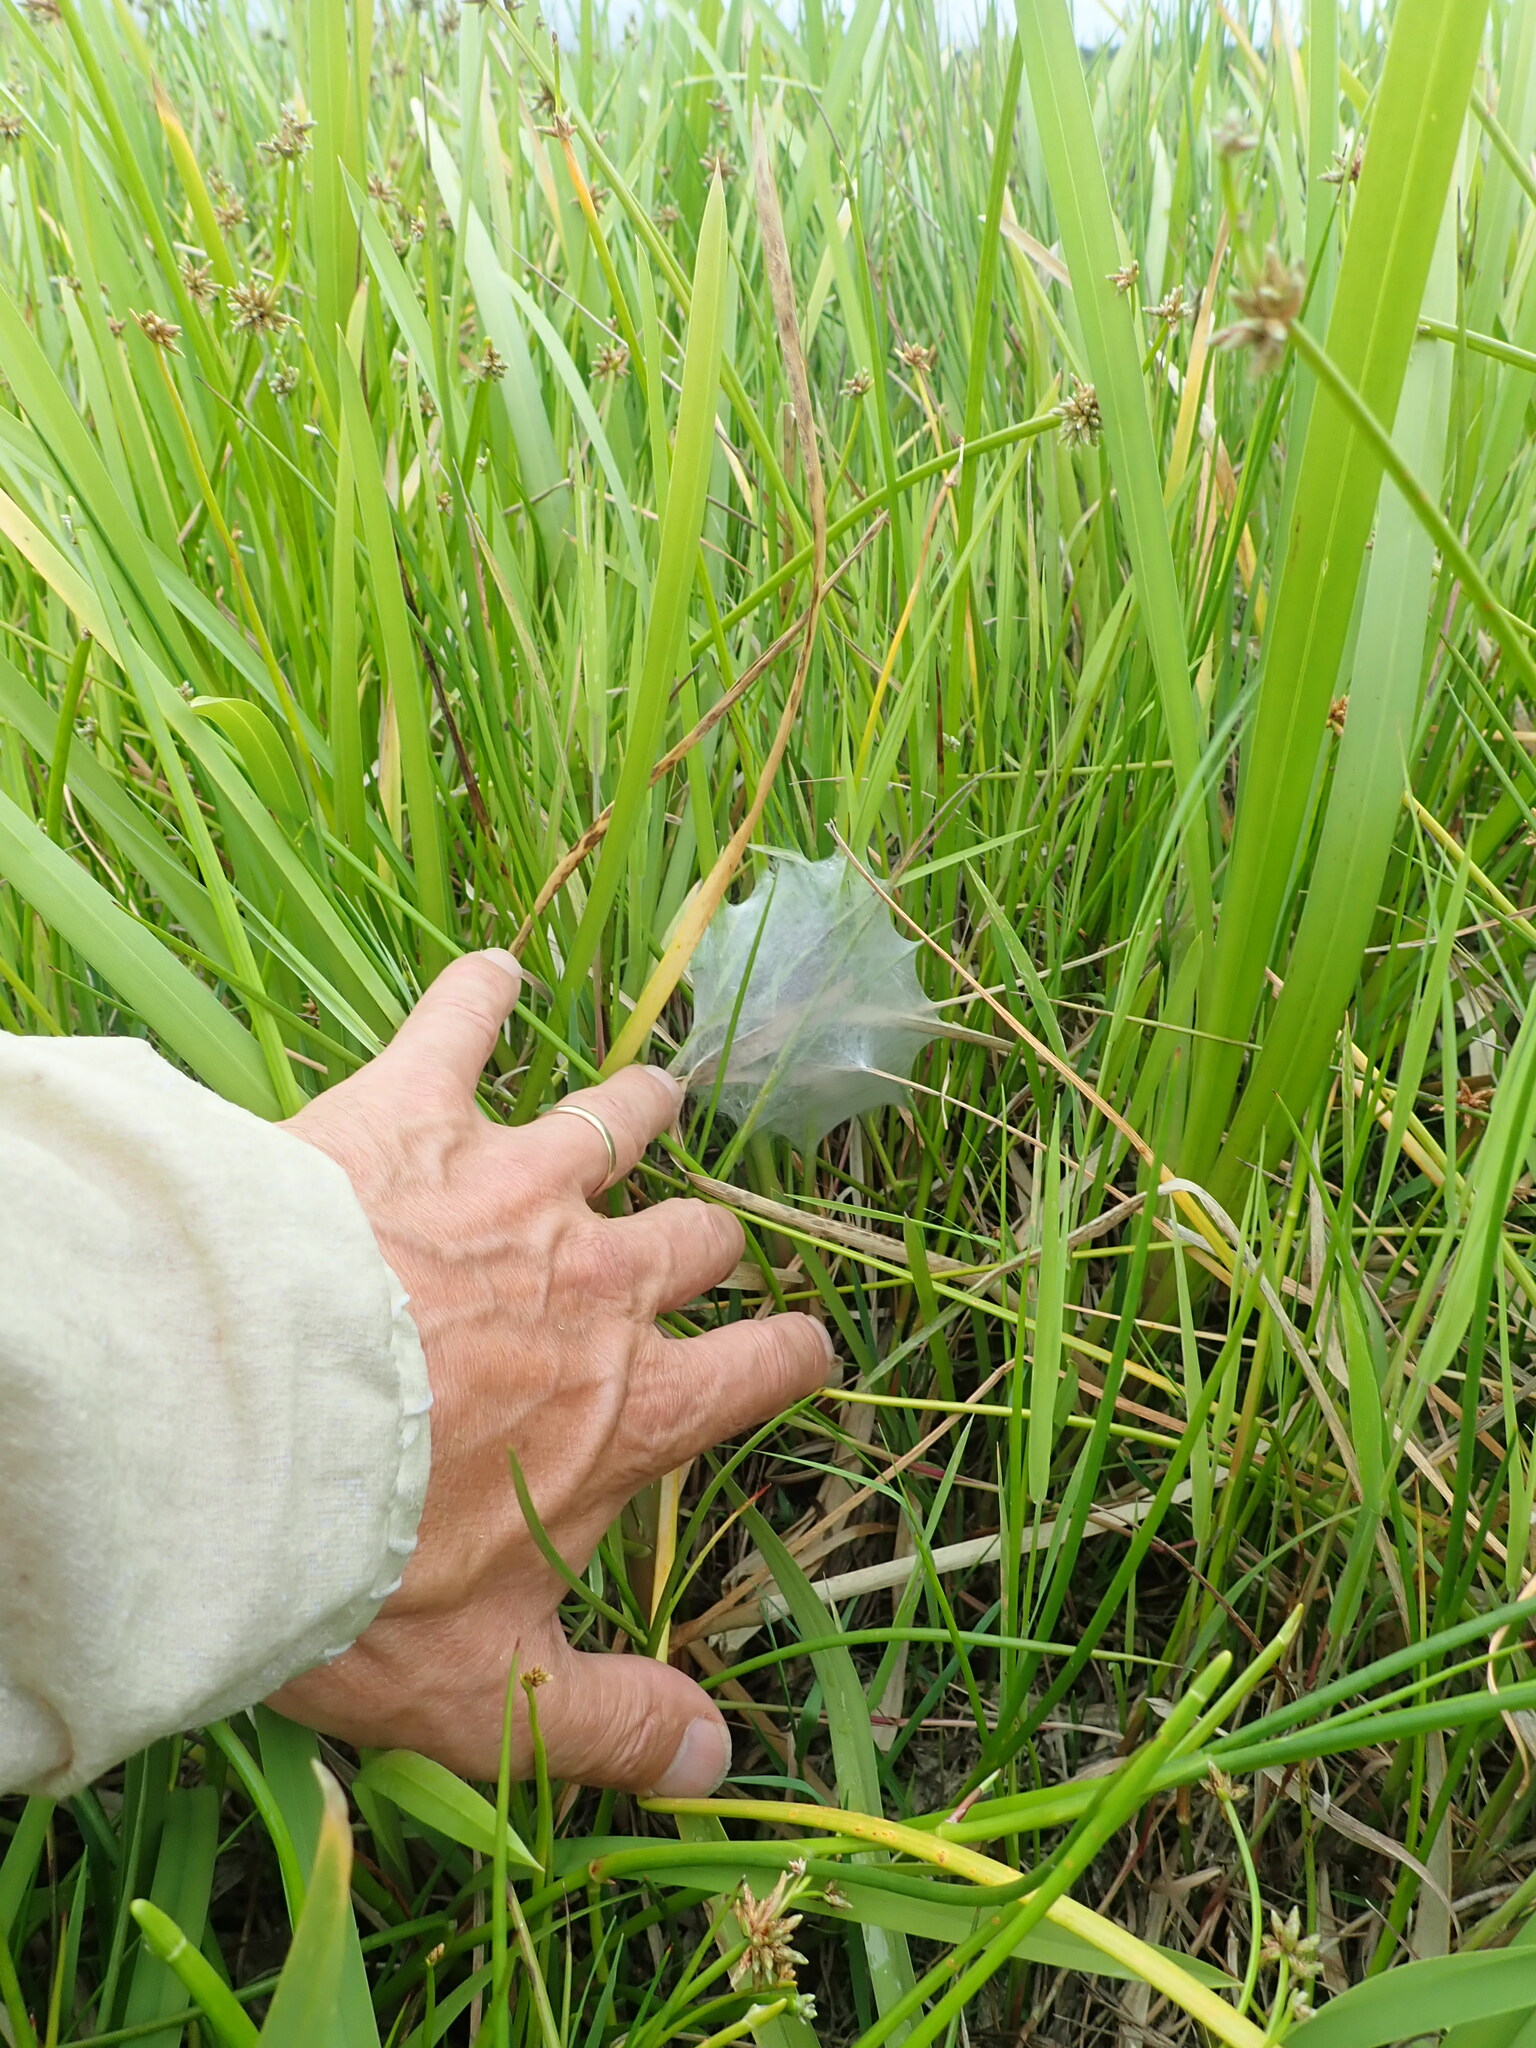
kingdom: Animalia
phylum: Arthropoda
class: Arachnida
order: Araneae
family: Pisauridae
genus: Dolomedes
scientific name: Dolomedes minor
